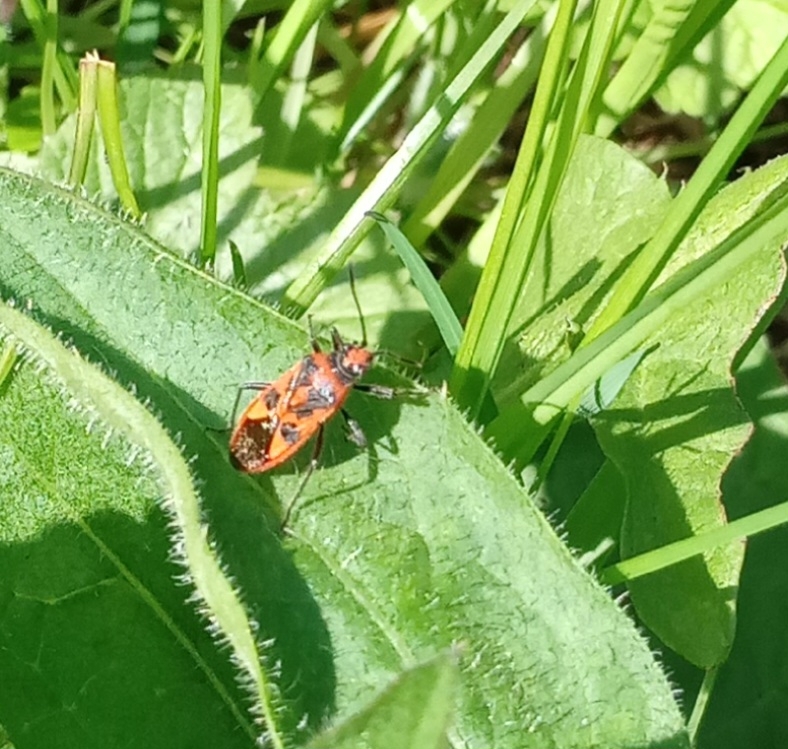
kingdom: Animalia
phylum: Arthropoda
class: Insecta
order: Hemiptera
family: Rhopalidae
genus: Corizus
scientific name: Corizus hyoscyami
